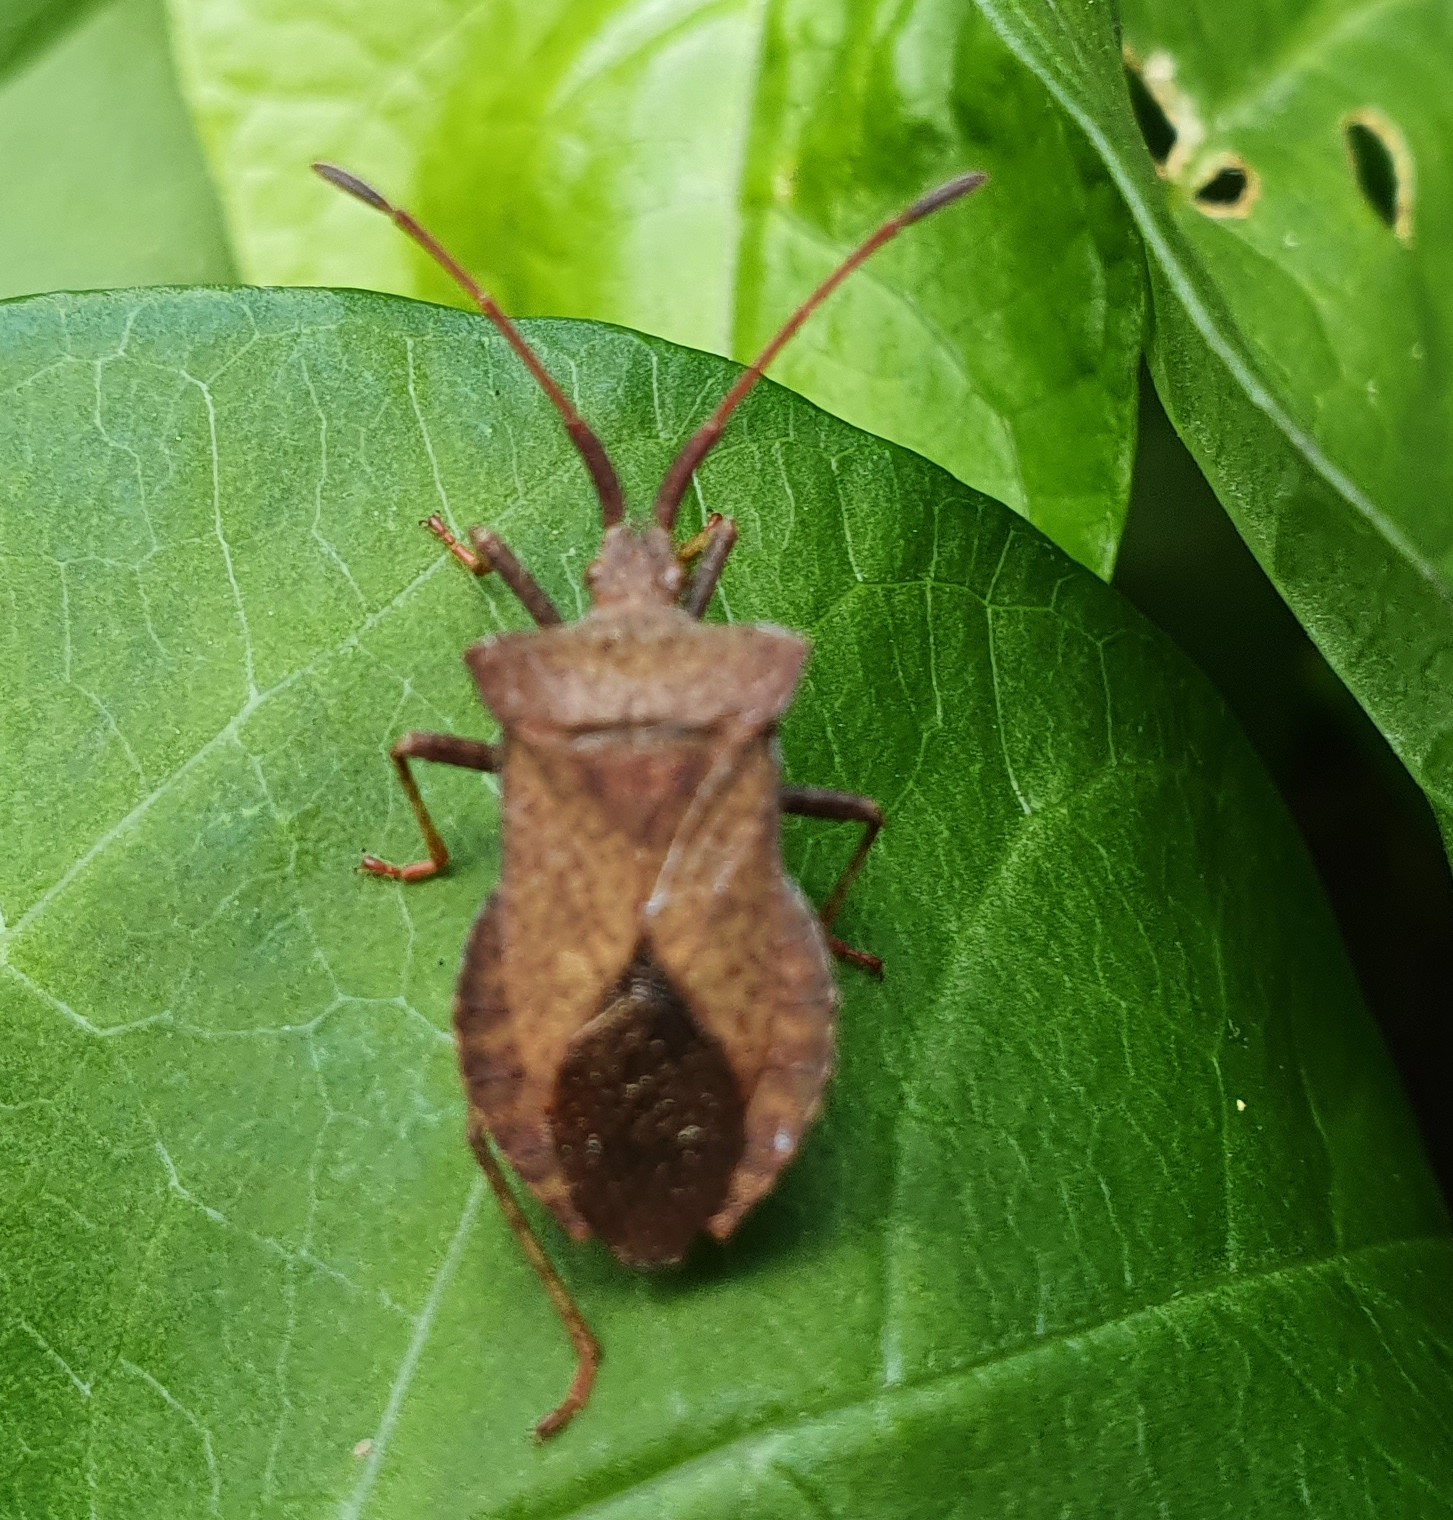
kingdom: Animalia
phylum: Arthropoda
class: Insecta
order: Hemiptera
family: Coreidae
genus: Coreus
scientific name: Coreus marginatus
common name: Dock bug
